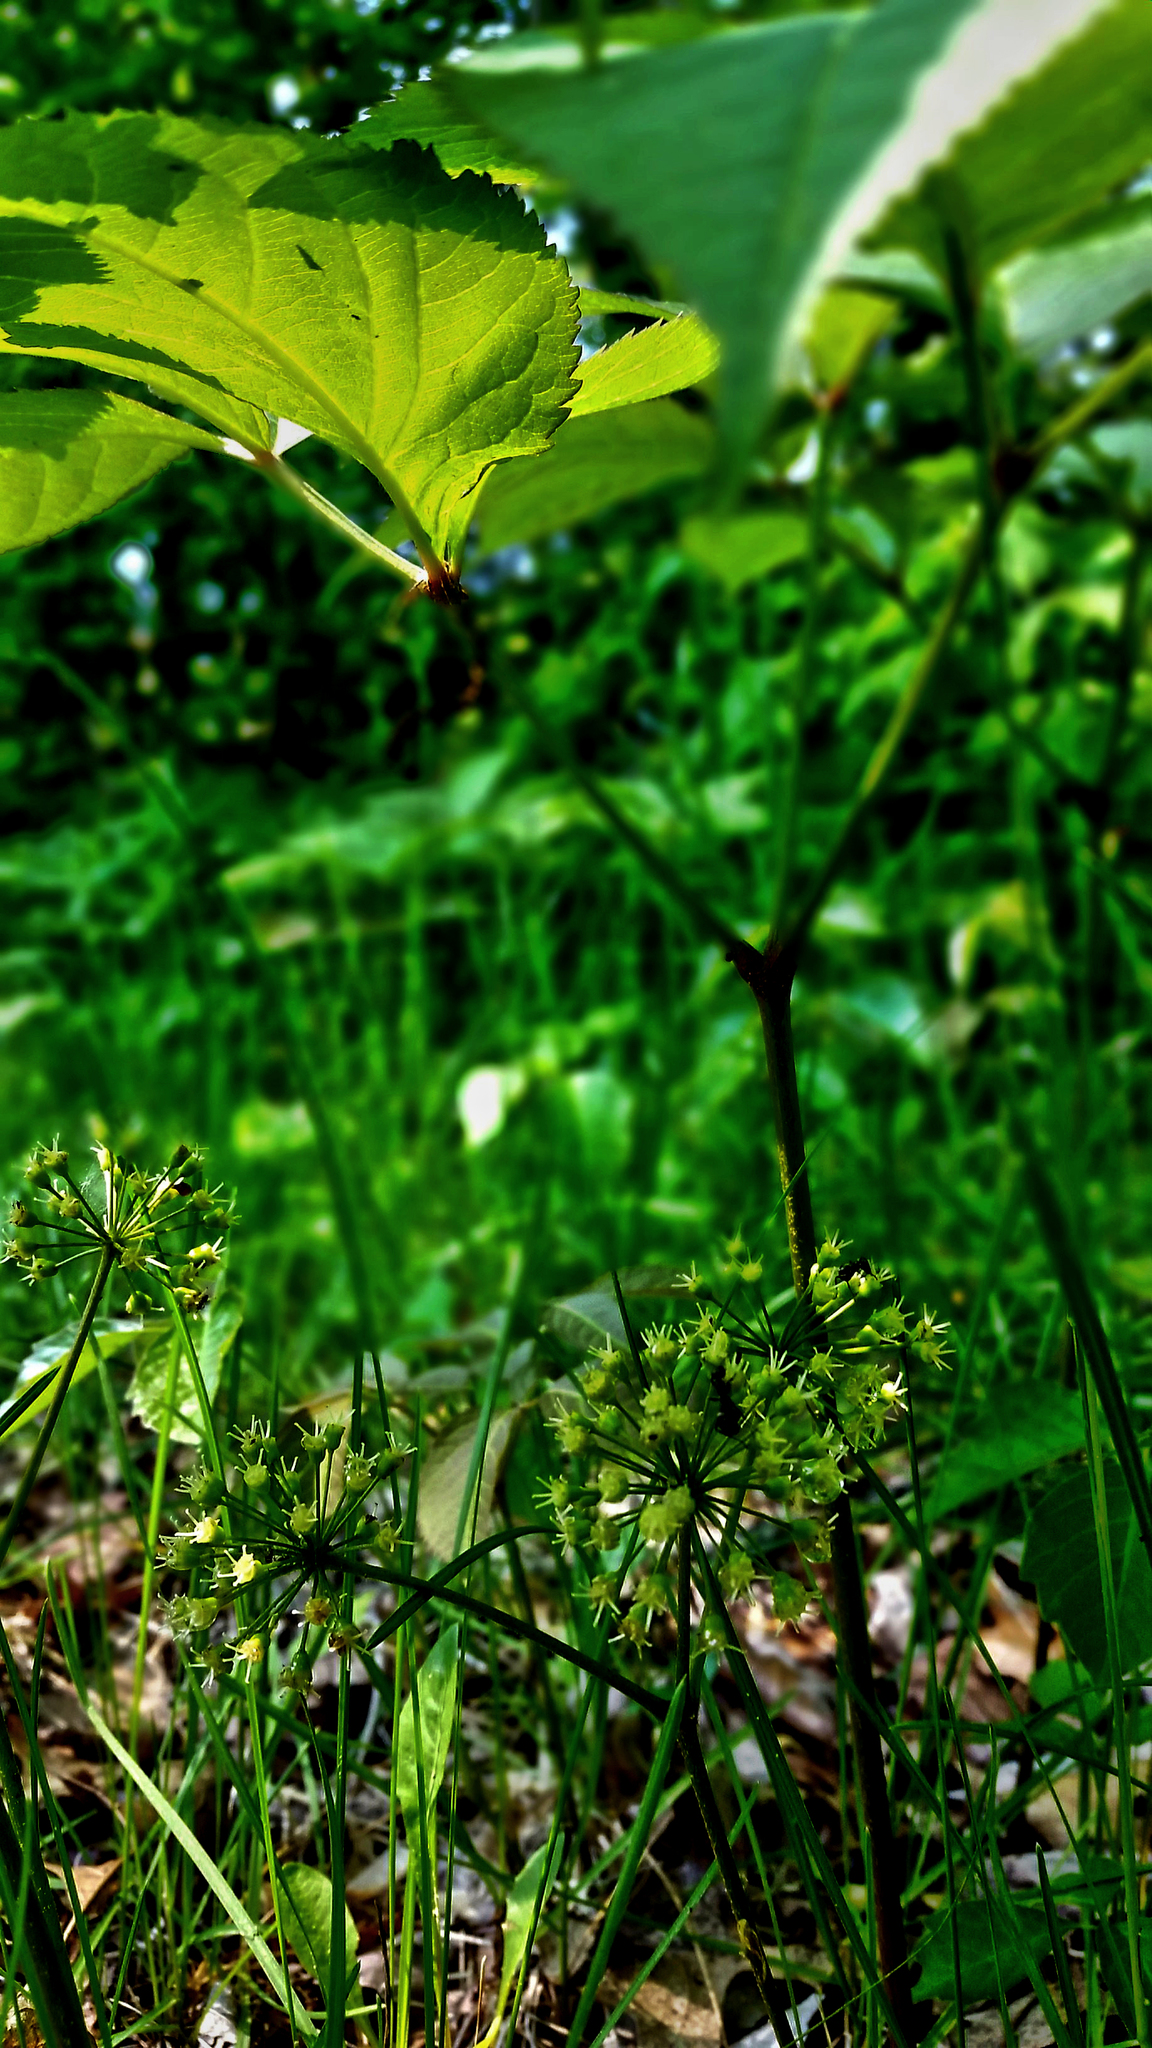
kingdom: Plantae
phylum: Tracheophyta
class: Magnoliopsida
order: Apiales
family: Araliaceae
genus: Aralia
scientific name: Aralia nudicaulis
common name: Wild sarsaparilla
